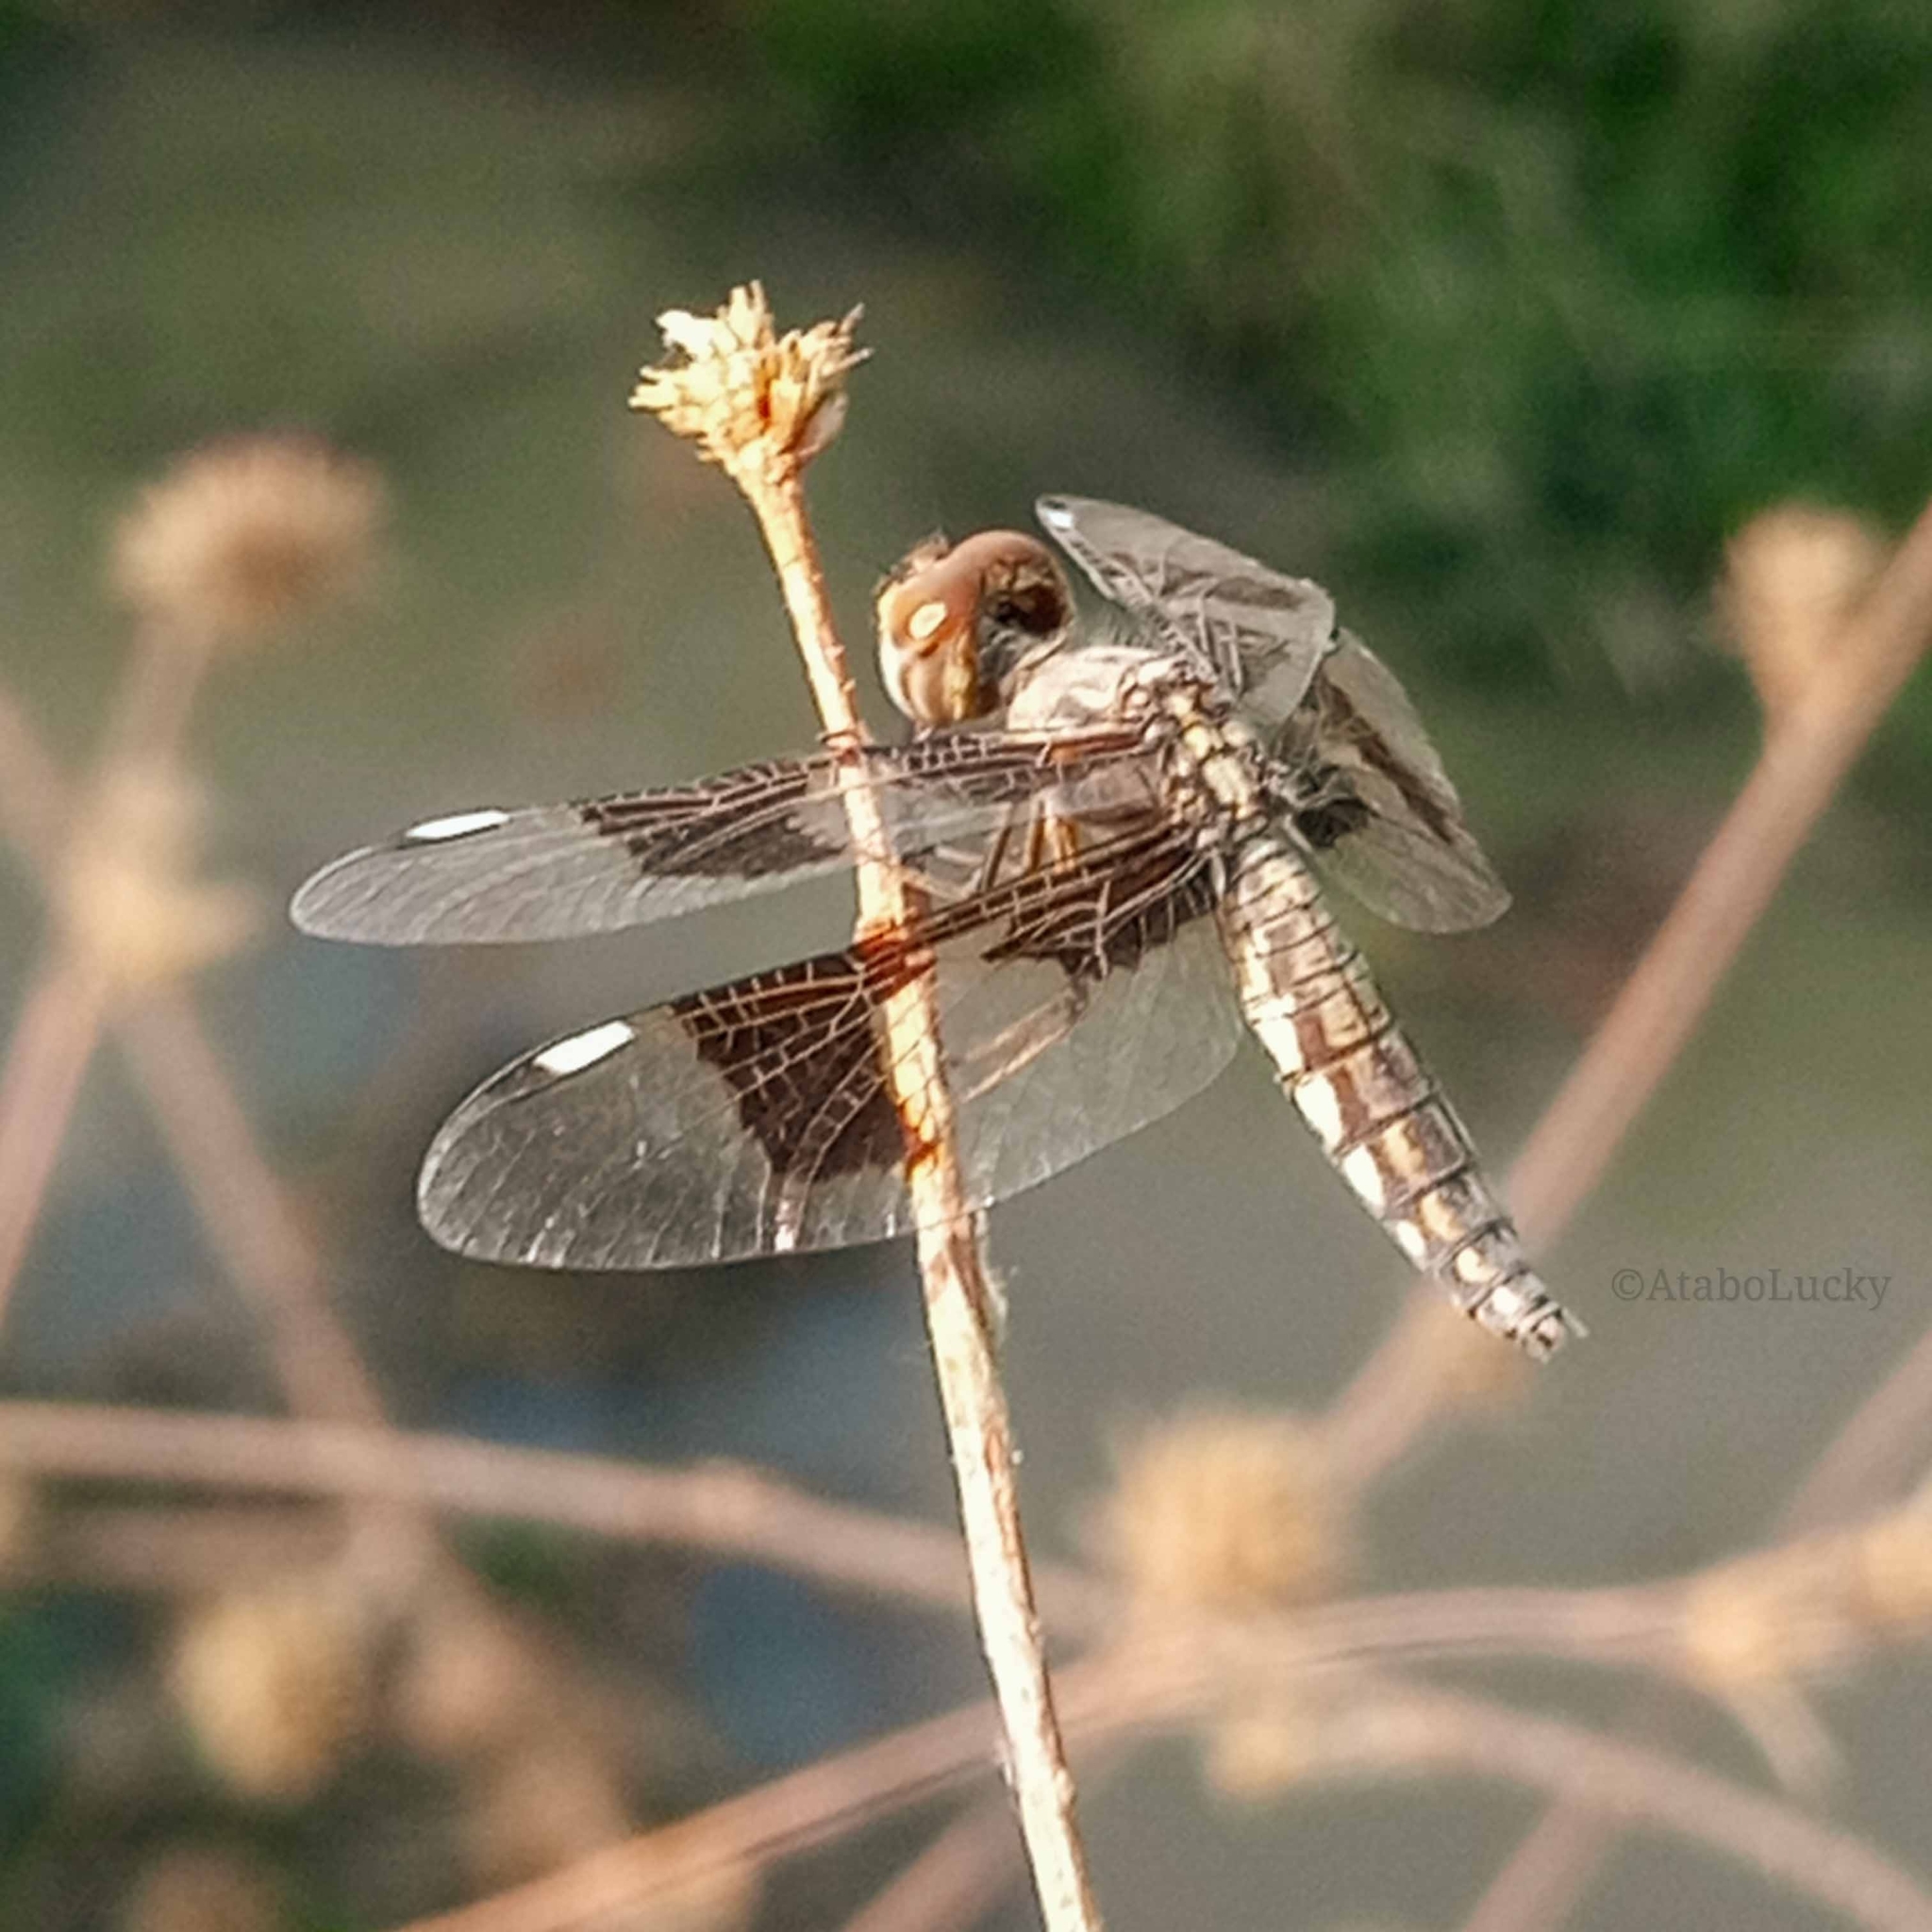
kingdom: Animalia
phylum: Arthropoda
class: Insecta
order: Odonata
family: Libellulidae
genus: Palpopleura
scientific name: Palpopleura lucia
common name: Lucia widow
